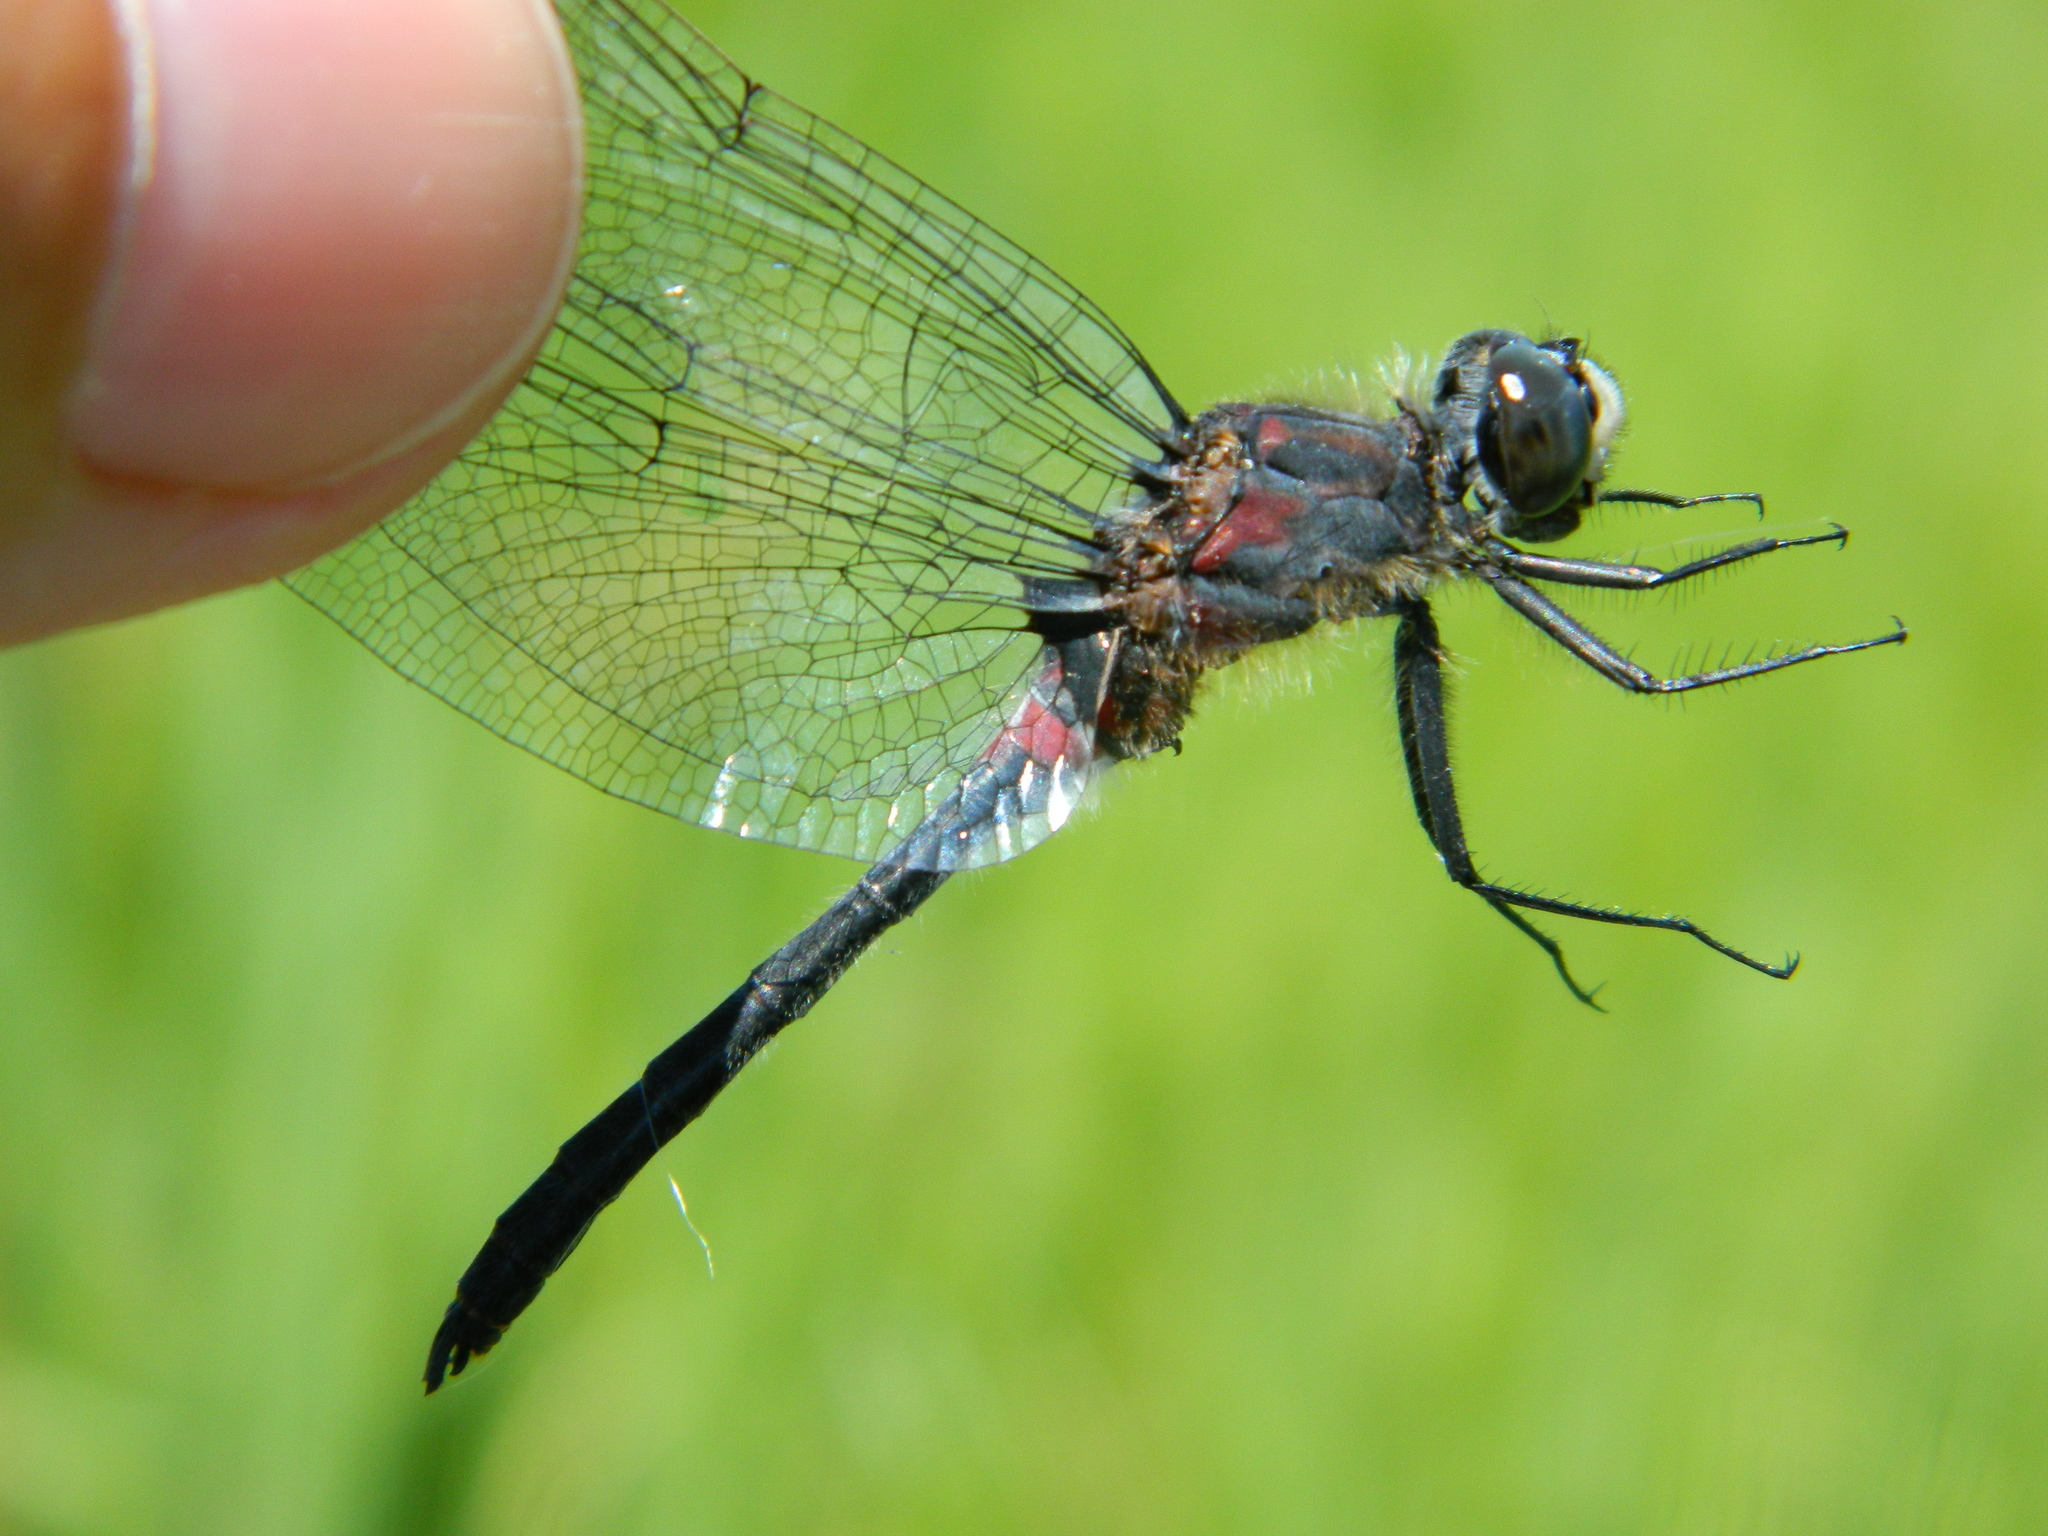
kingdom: Animalia
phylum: Arthropoda
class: Insecta
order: Odonata
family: Libellulidae
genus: Leucorrhinia
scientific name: Leucorrhinia glacialis
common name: Crimson-ringed whiteface
